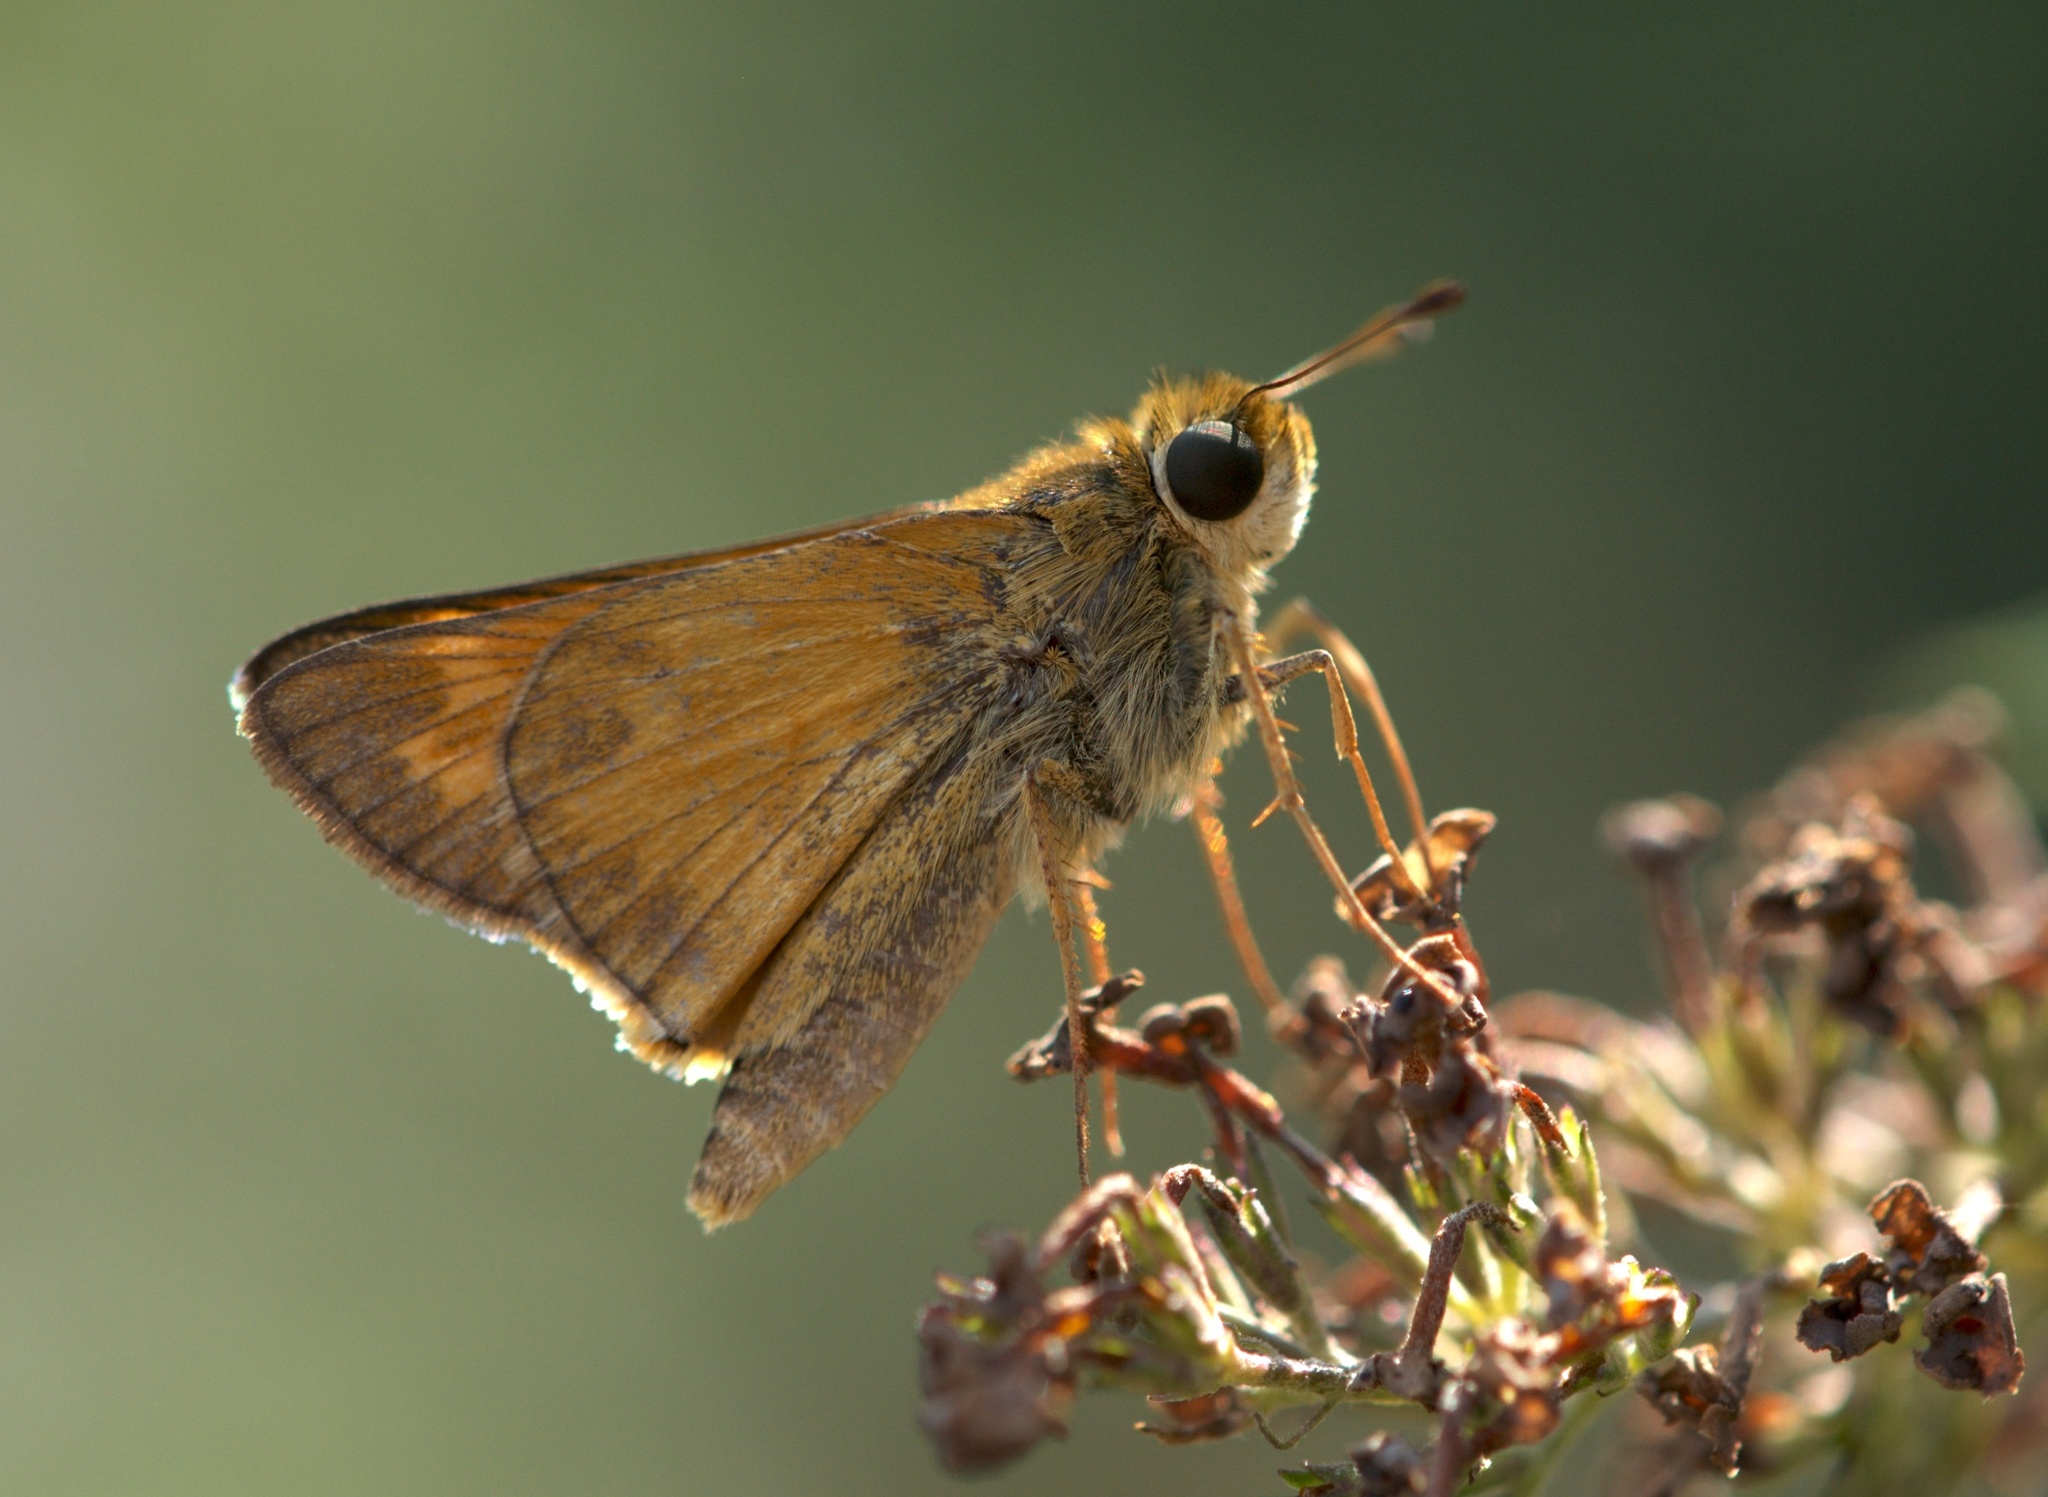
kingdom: Animalia
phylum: Arthropoda
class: Insecta
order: Lepidoptera
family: Hesperiidae
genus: Atalopedes
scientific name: Atalopedes
